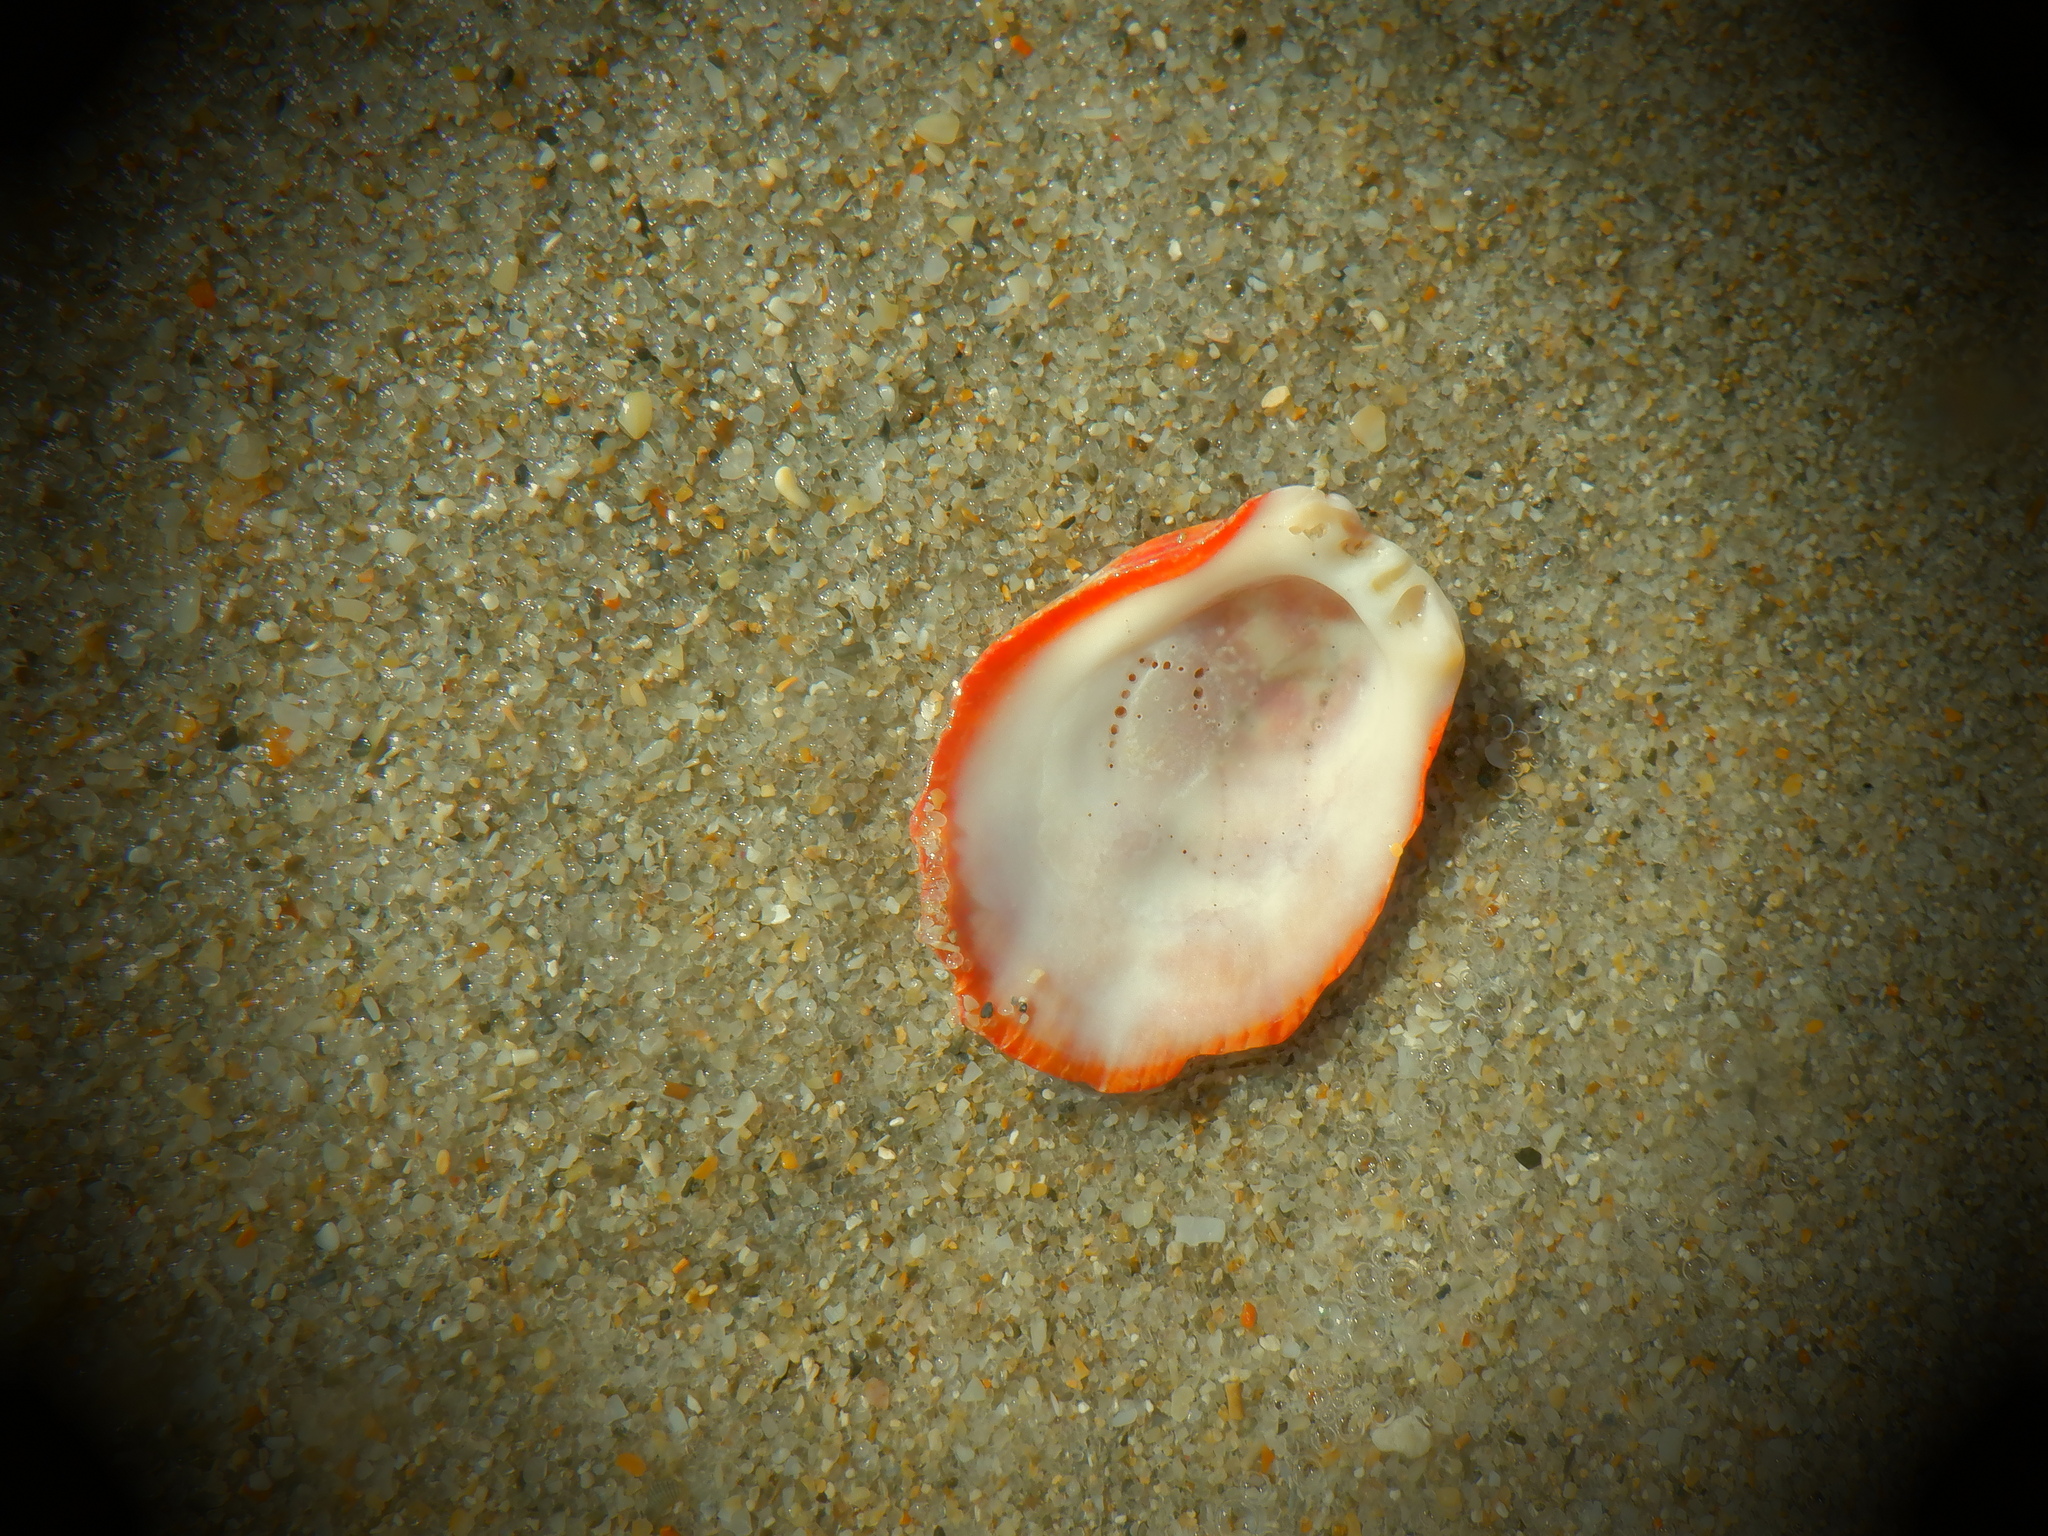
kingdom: Animalia
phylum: Mollusca
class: Bivalvia
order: Pectinida
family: Spondylidae
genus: Spondylus
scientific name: Spondylus tenuis
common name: Digitate thorny oyster
